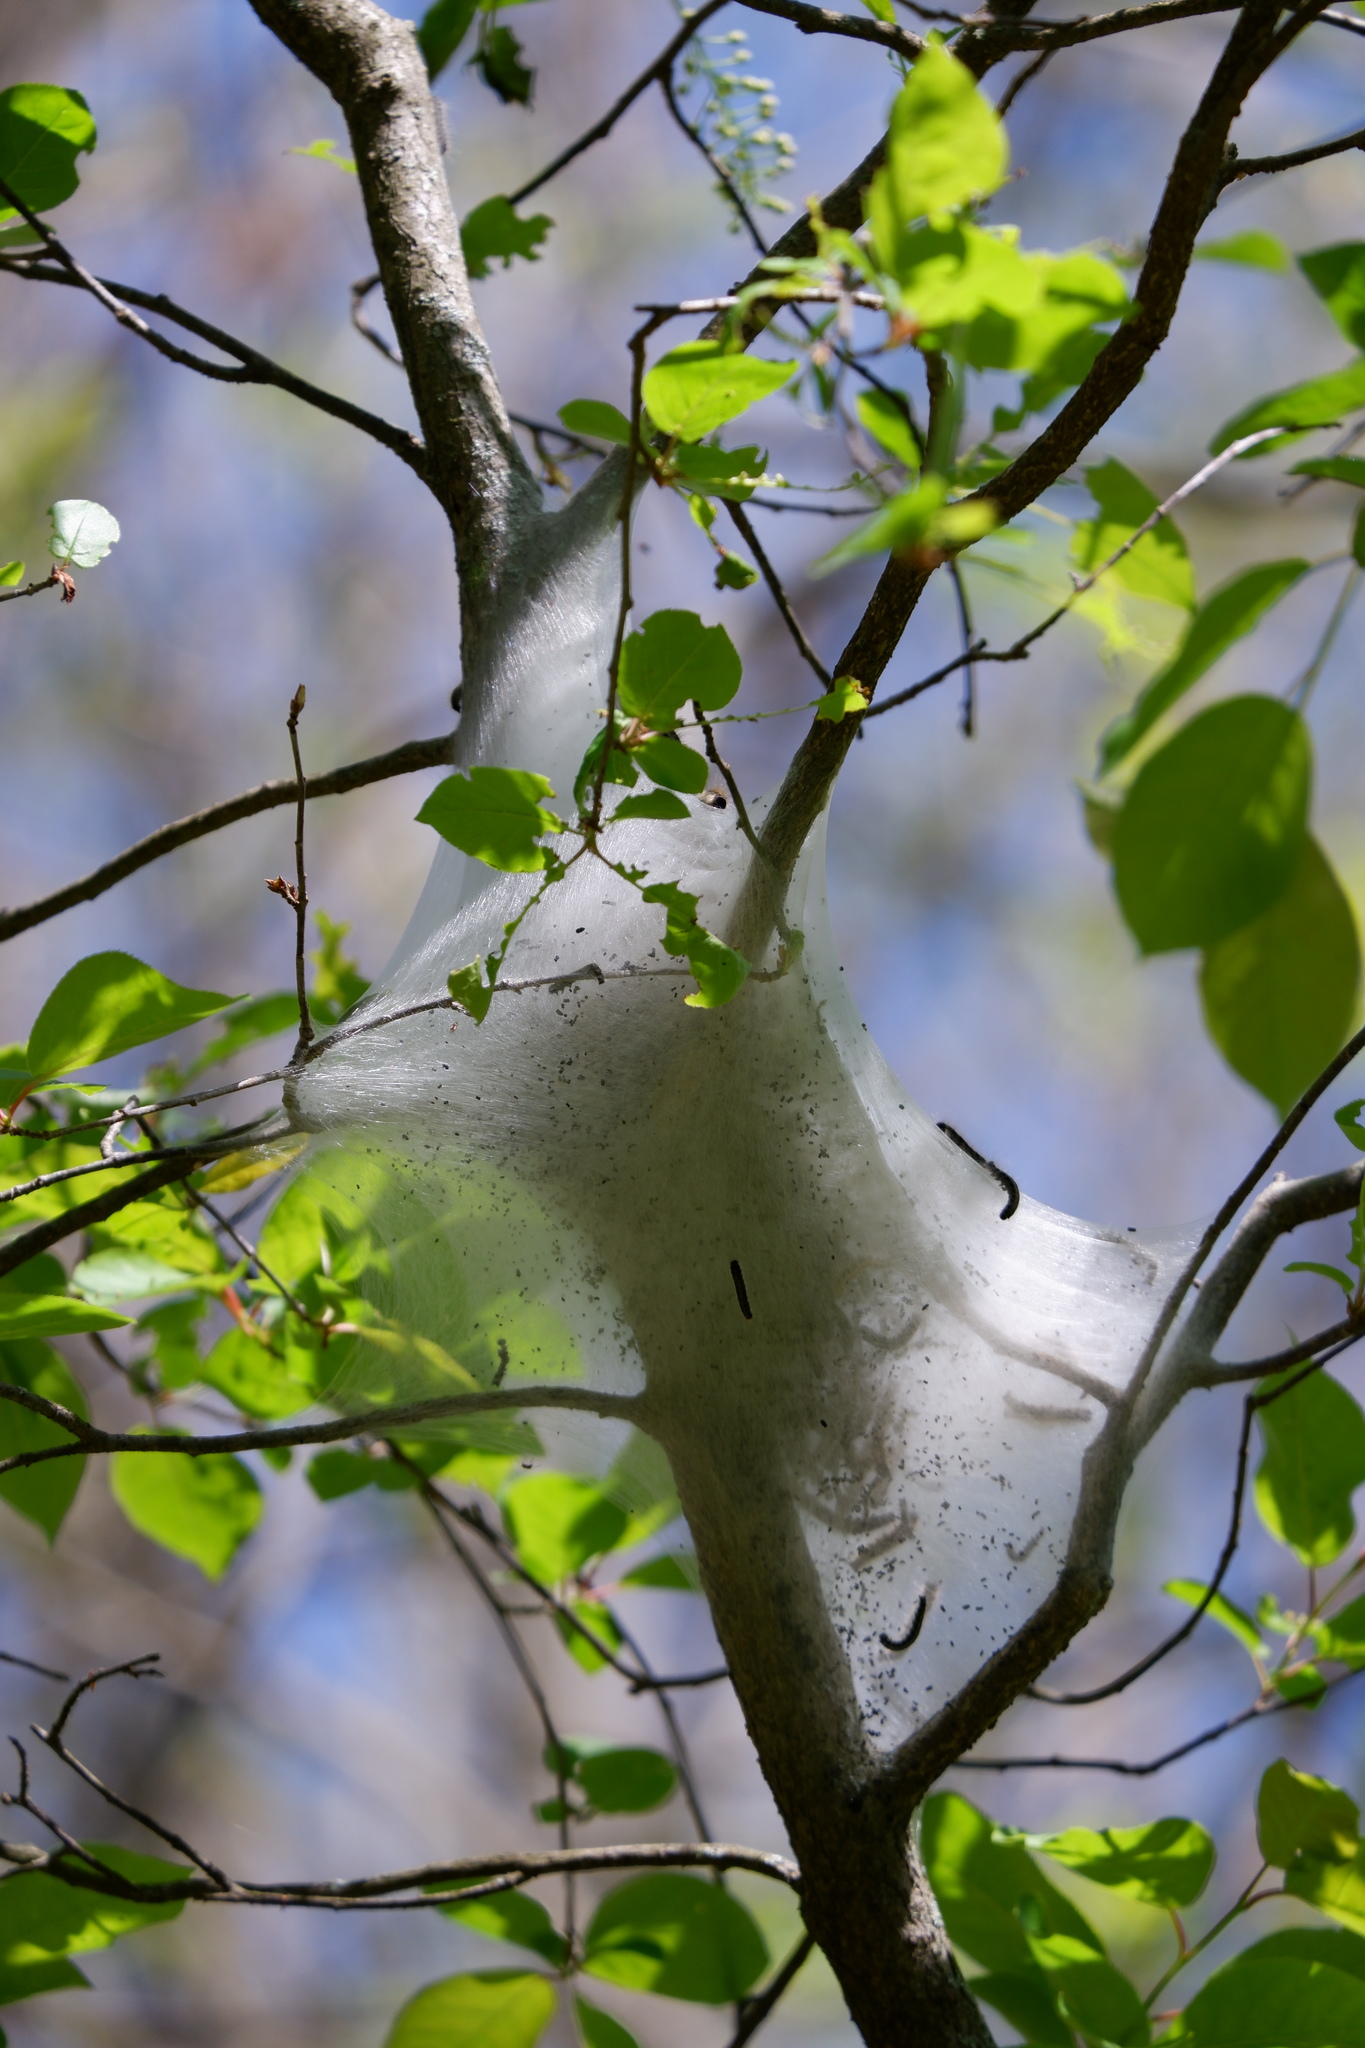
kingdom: Animalia
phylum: Arthropoda
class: Insecta
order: Lepidoptera
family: Lasiocampidae
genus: Malacosoma
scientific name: Malacosoma americana
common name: Eastern tent caterpillar moth
